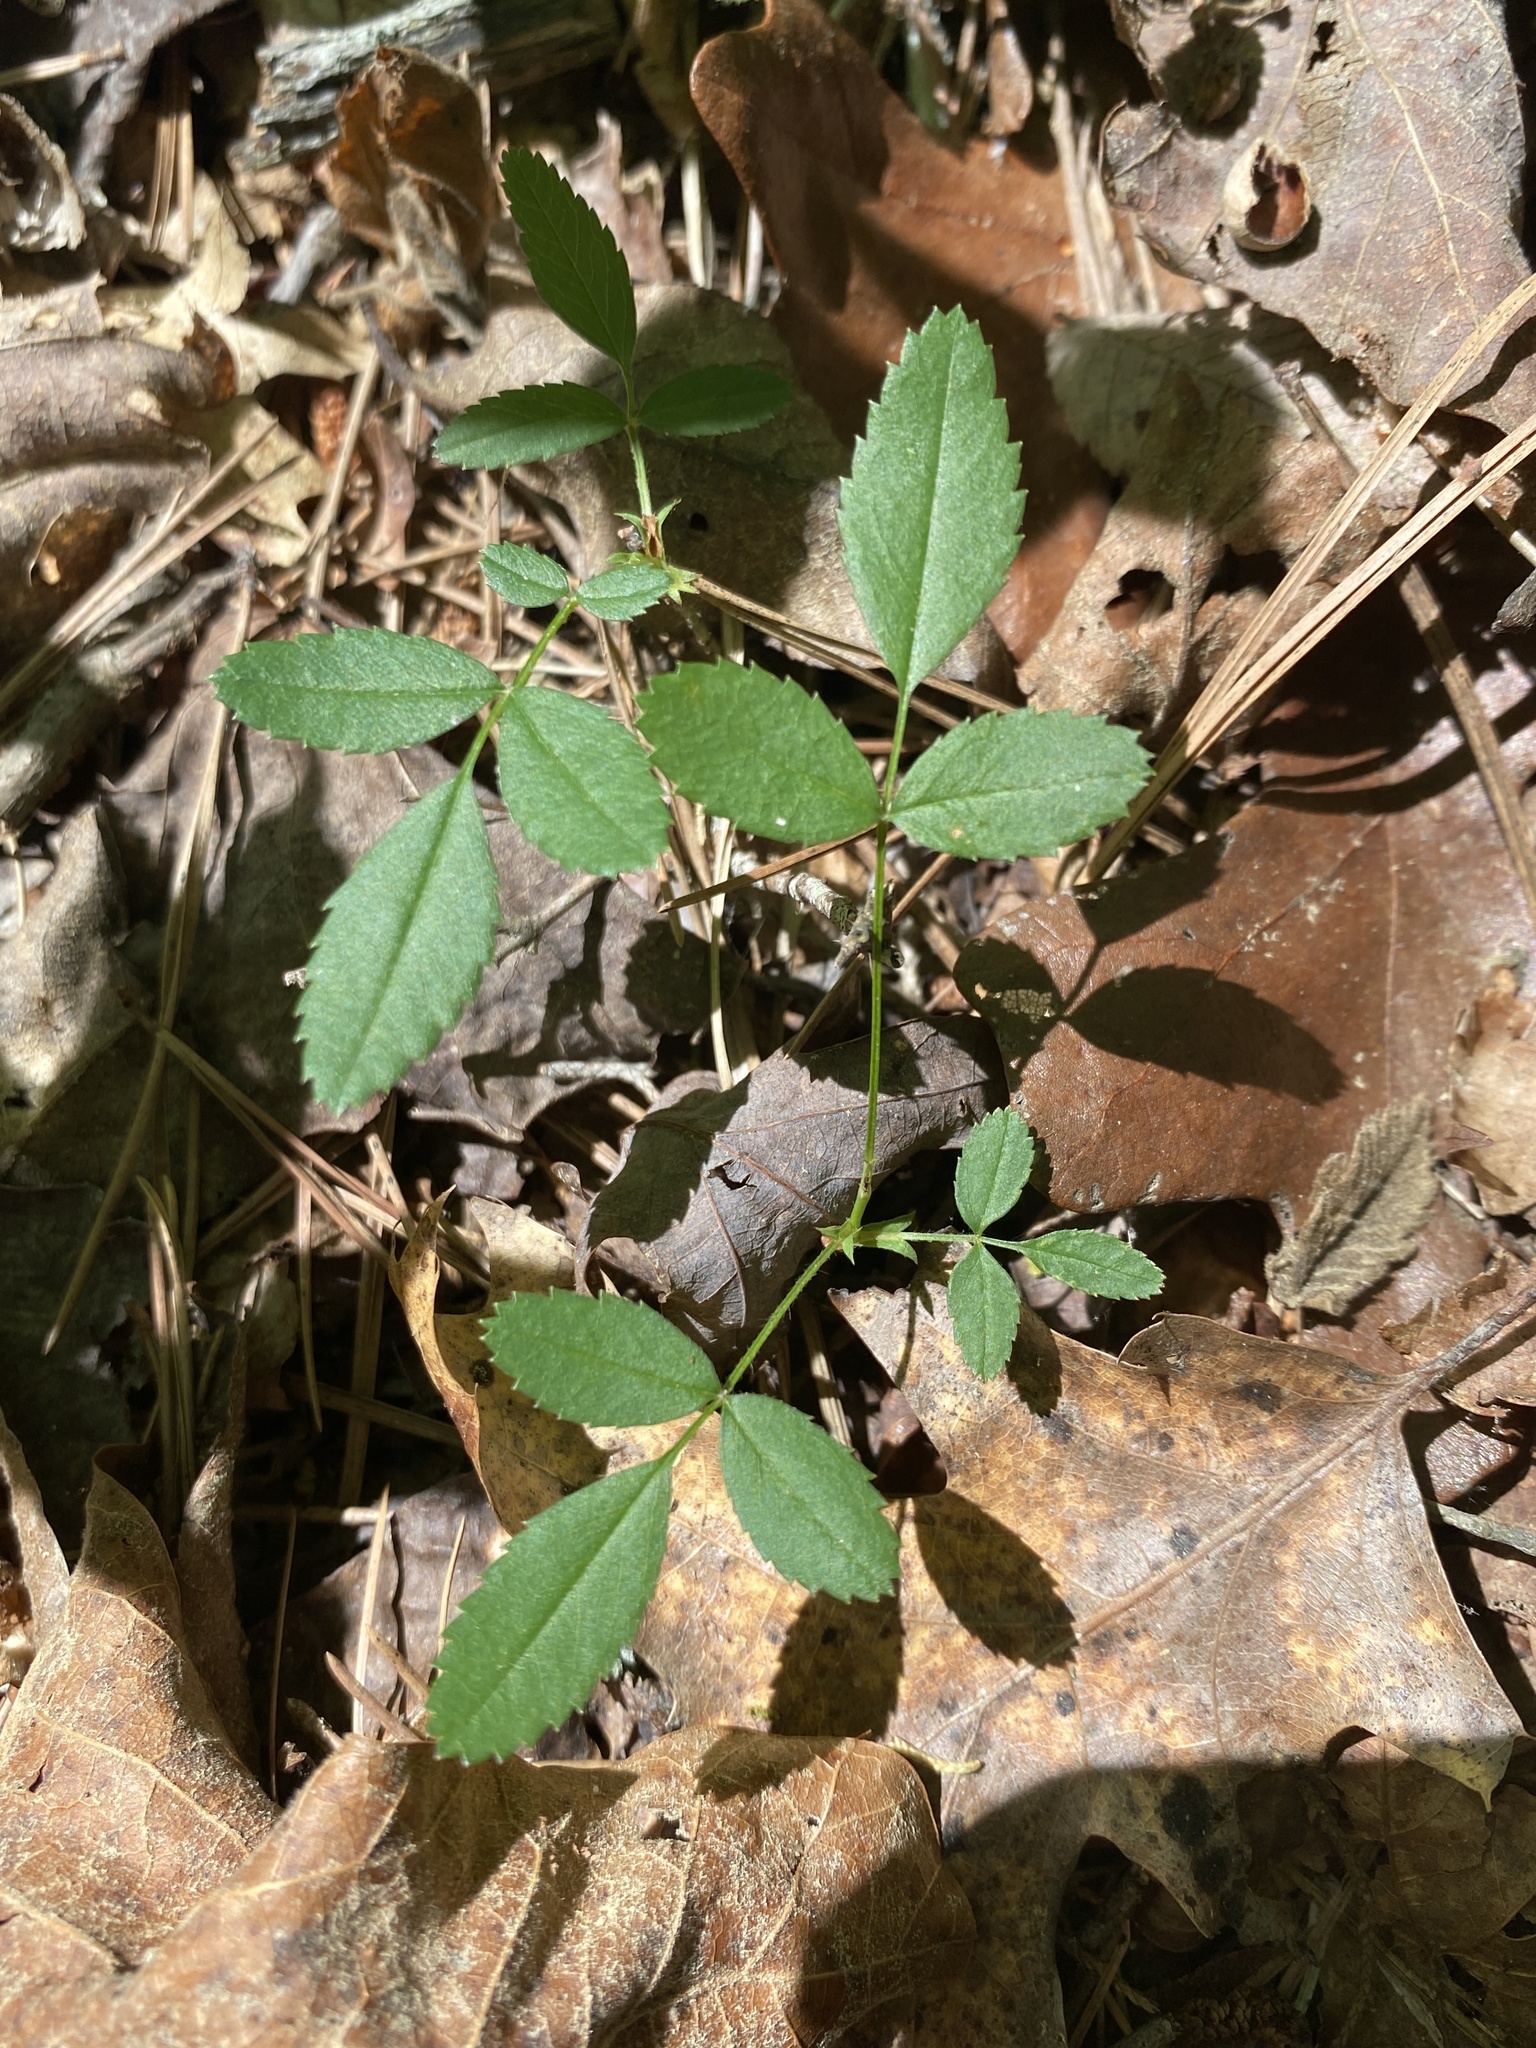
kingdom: Plantae
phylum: Tracheophyta
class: Magnoliopsida
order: Rosales
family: Rosaceae
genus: Rosa
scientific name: Rosa carolina
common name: Pasture rose
